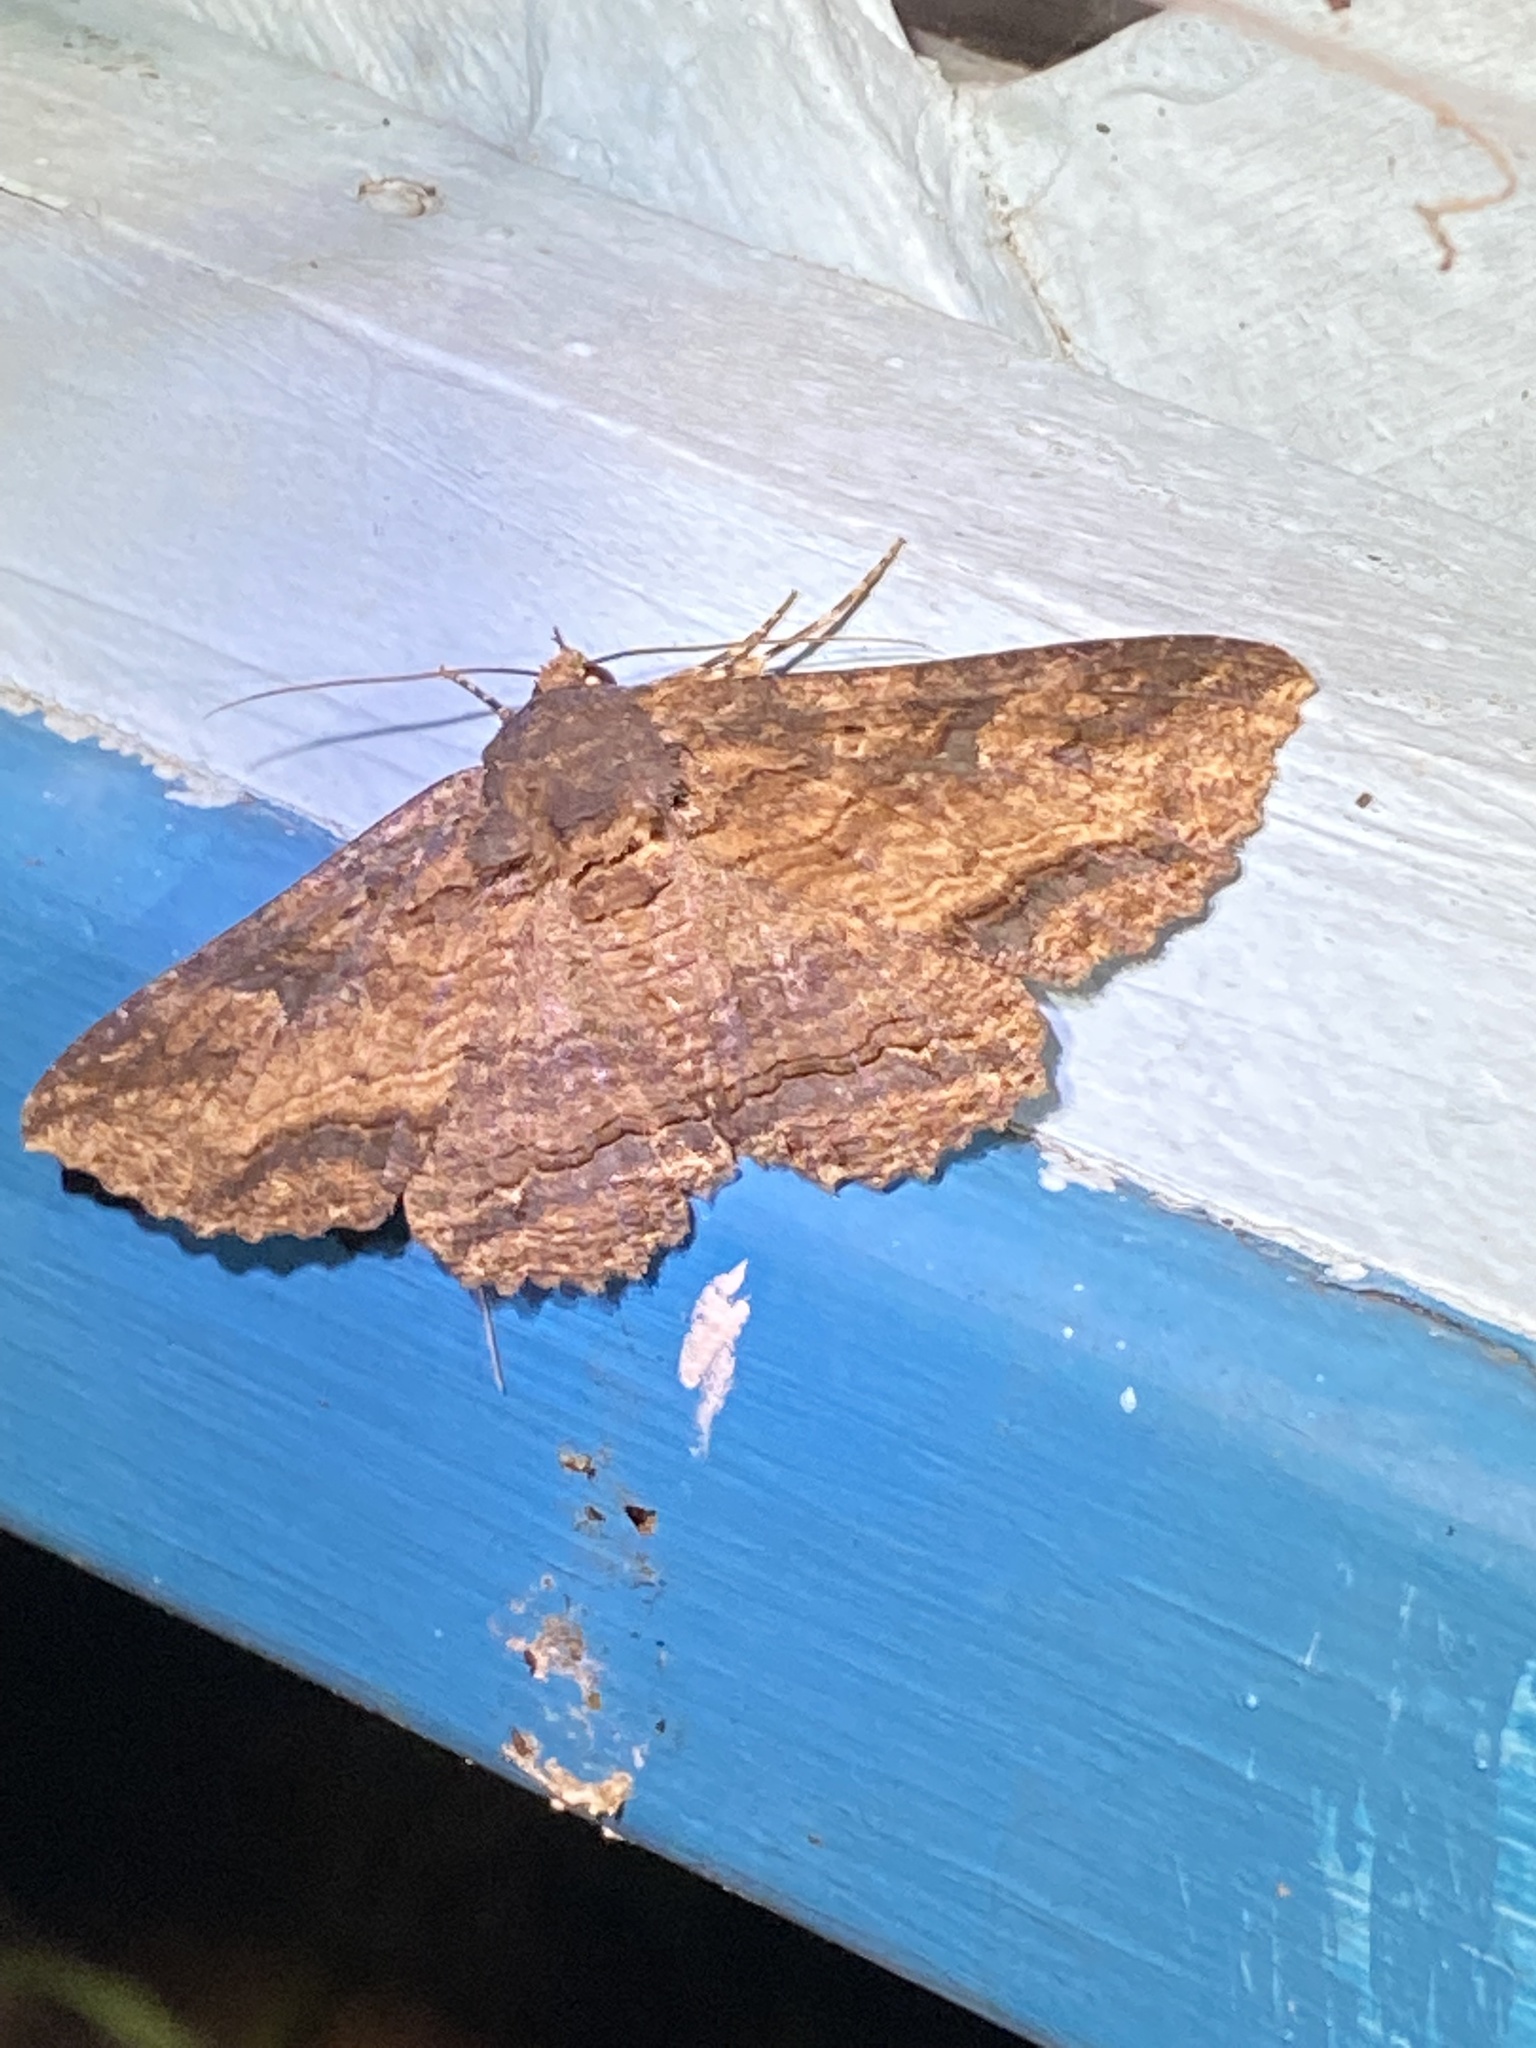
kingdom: Animalia
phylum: Arthropoda
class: Insecta
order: Lepidoptera
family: Erebidae
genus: Zale
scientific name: Zale lunata
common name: Lunate zale moth
